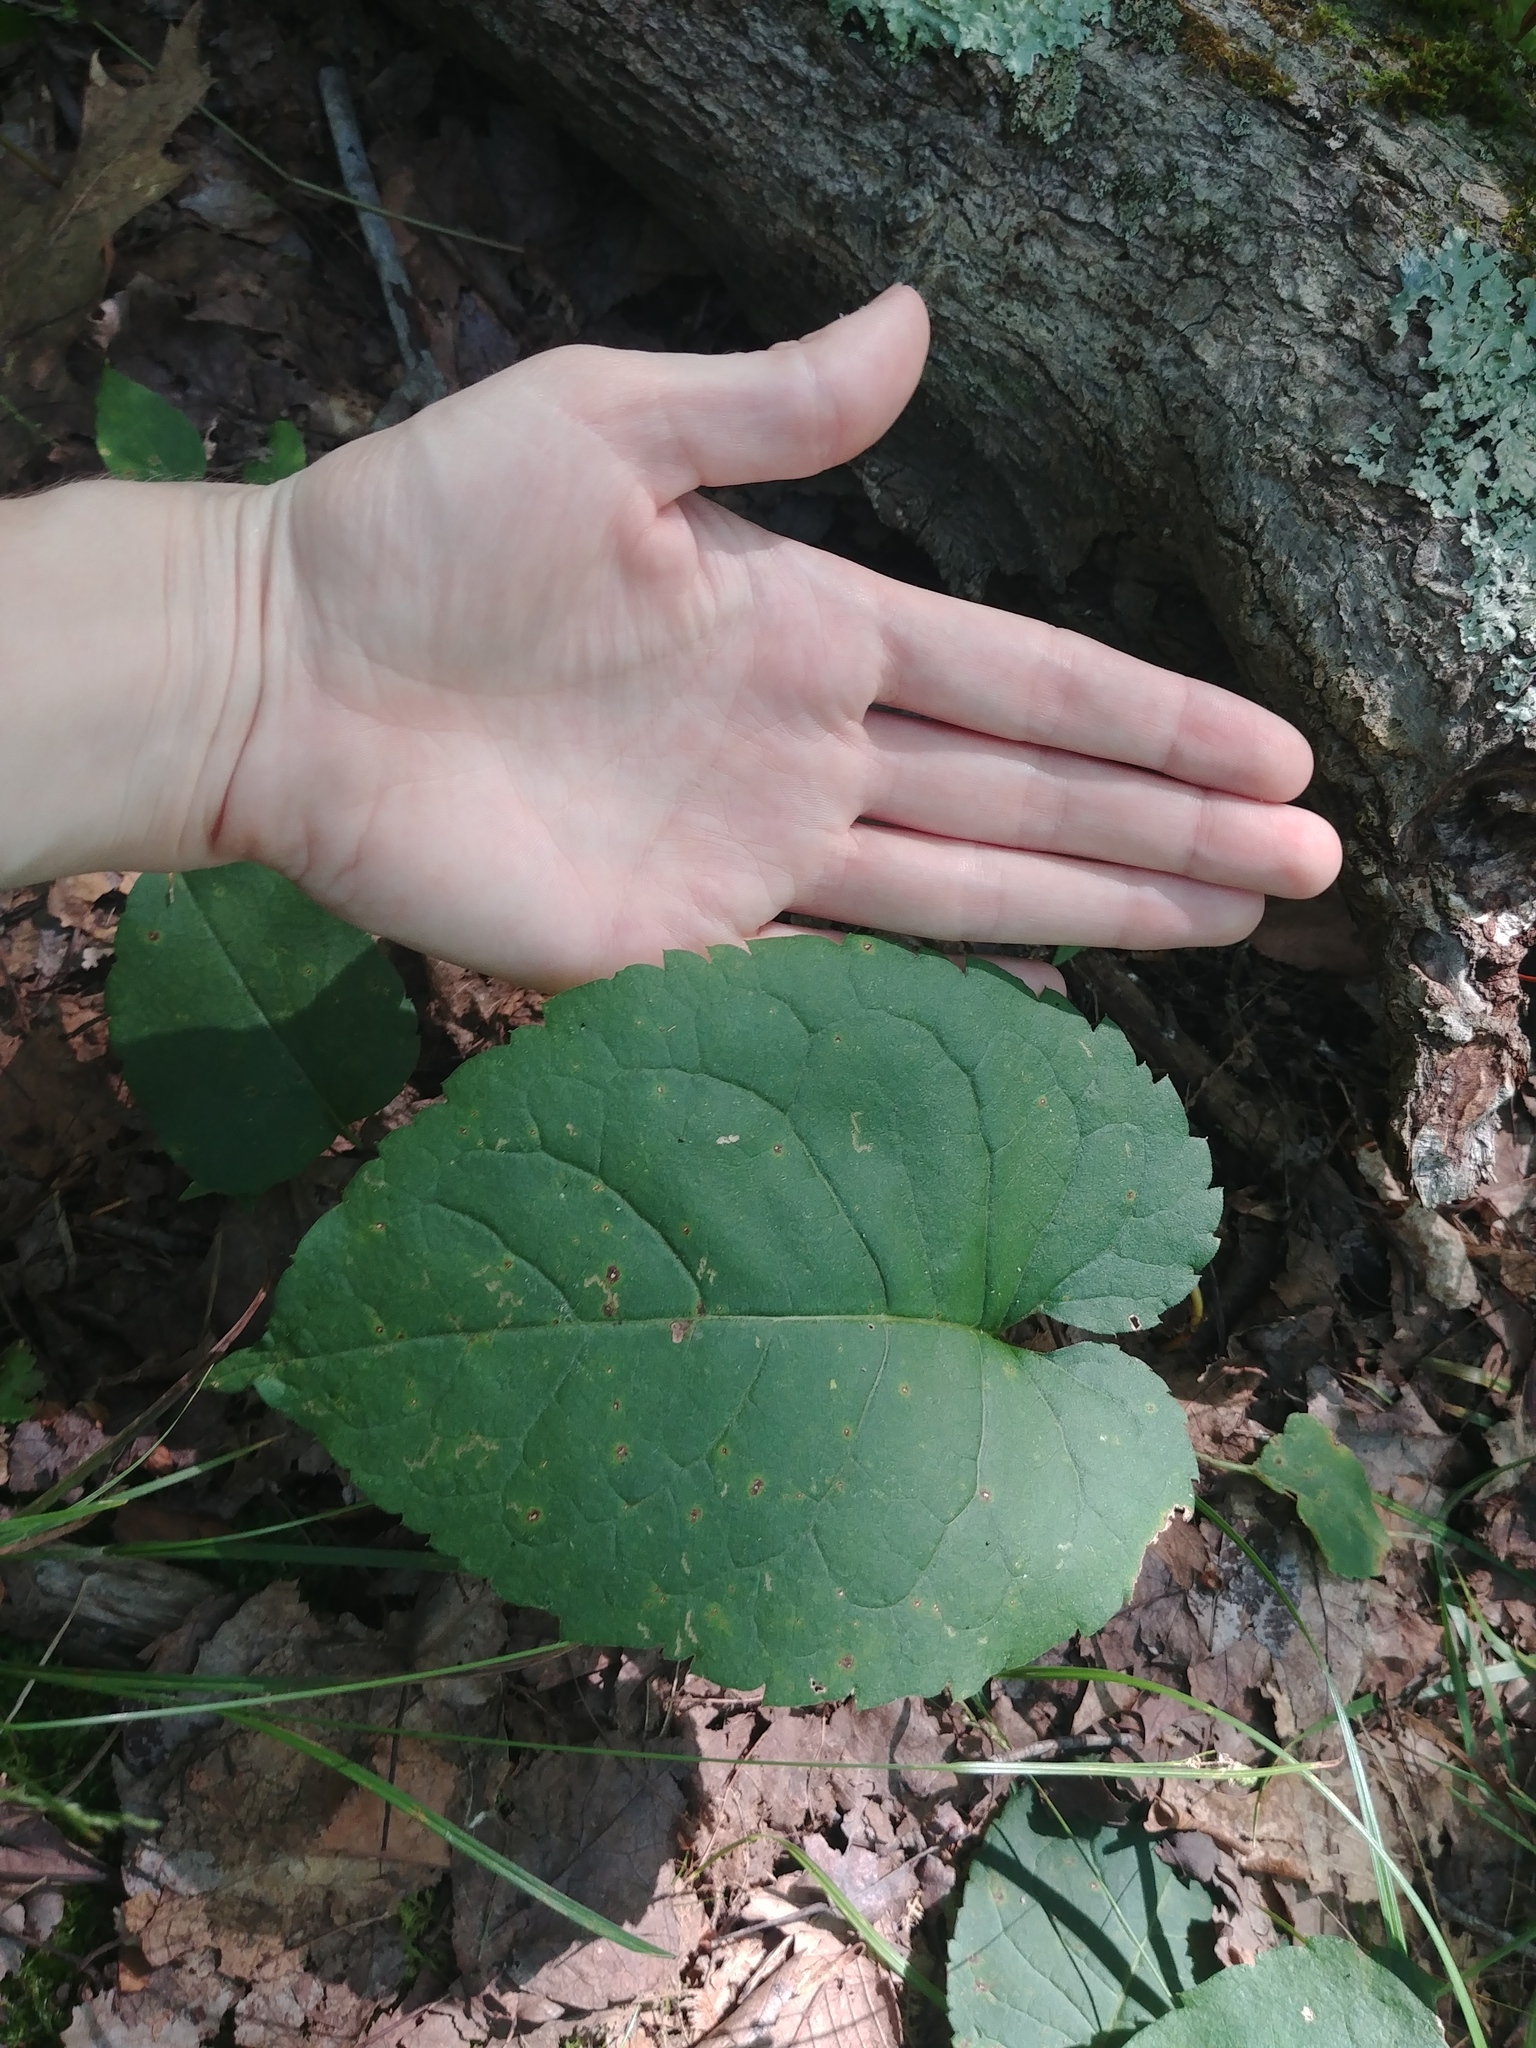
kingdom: Plantae
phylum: Tracheophyta
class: Magnoliopsida
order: Asterales
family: Asteraceae
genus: Eurybia
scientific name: Eurybia macrophylla
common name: Big-leaved aster
